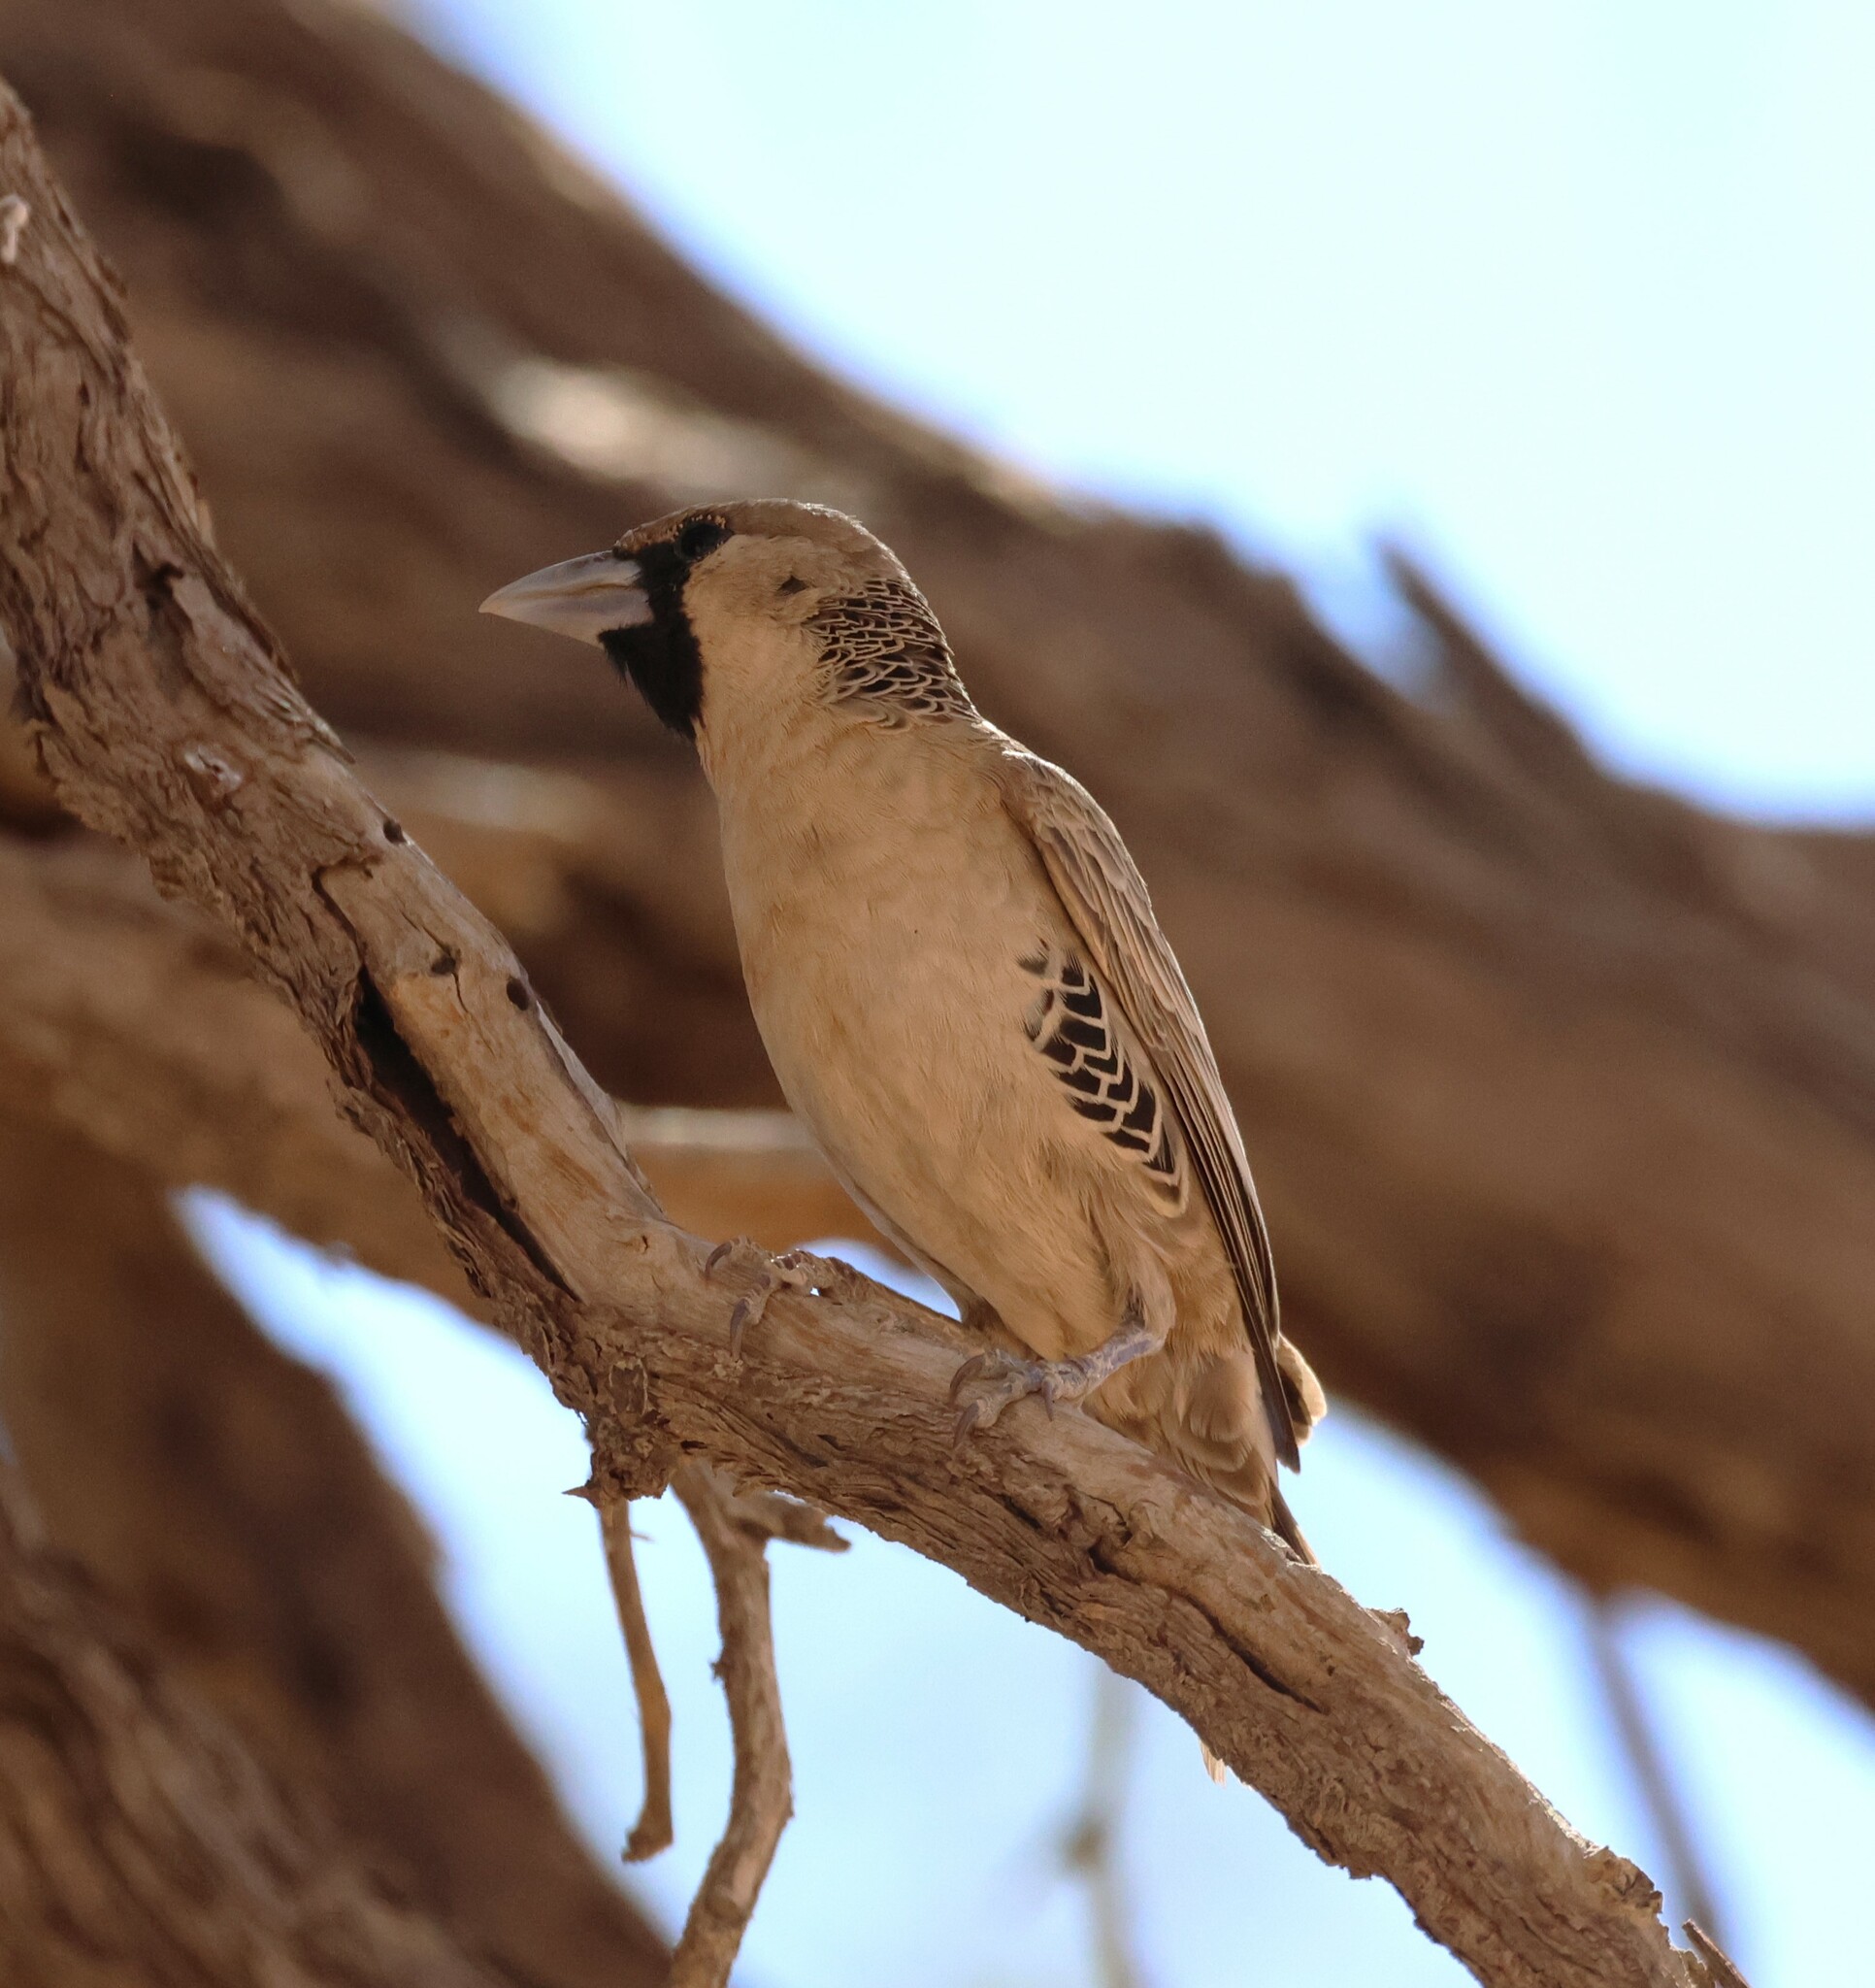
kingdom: Animalia
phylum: Chordata
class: Aves
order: Passeriformes
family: Passeridae
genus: Philetairus
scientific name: Philetairus socius
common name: Sociable weaver
